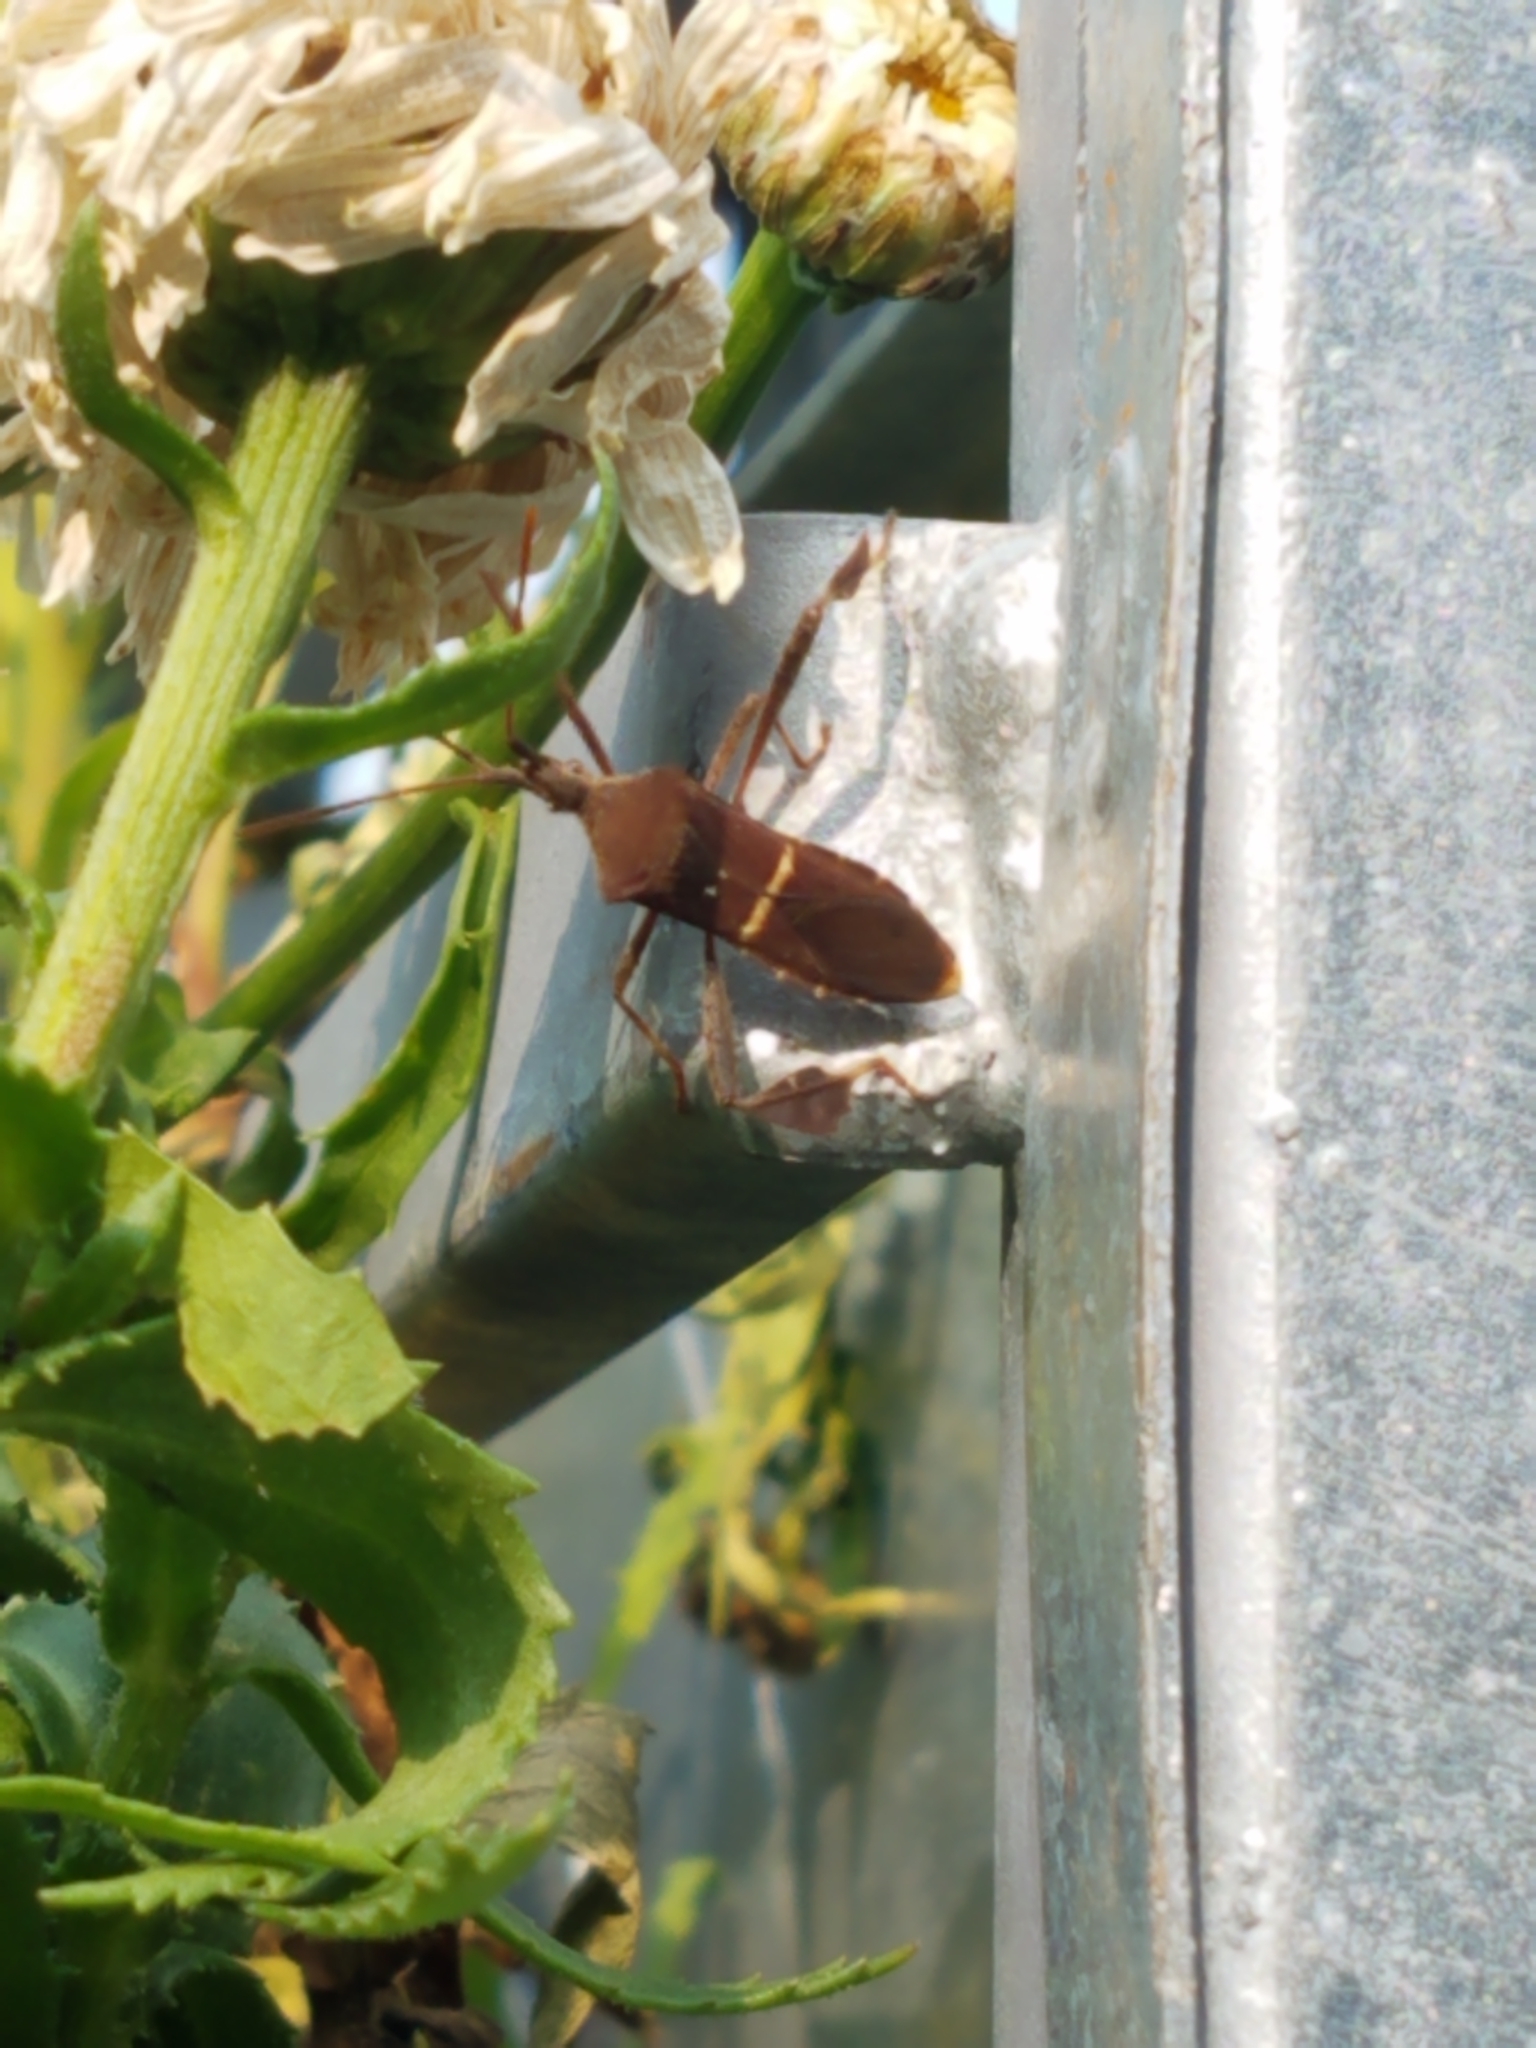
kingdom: Animalia
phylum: Arthropoda
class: Insecta
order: Hemiptera
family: Coreidae
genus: Leptoglossus
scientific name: Leptoglossus phyllopus
